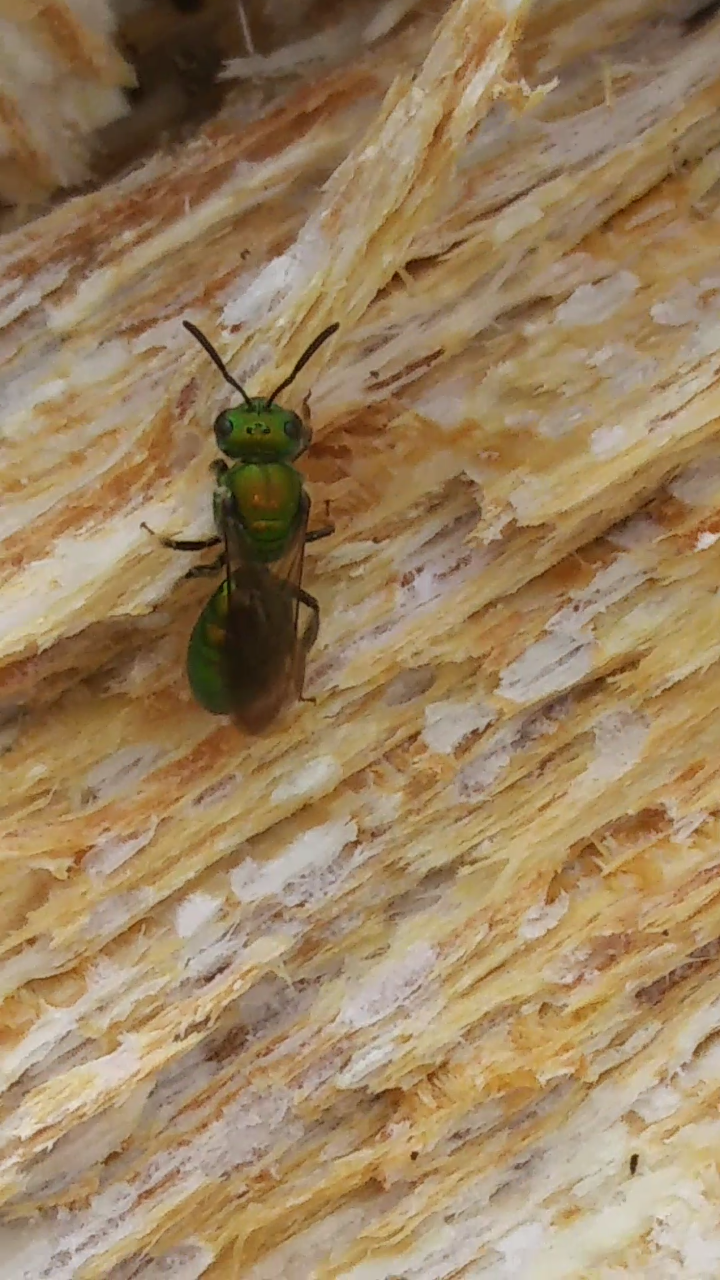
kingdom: Animalia
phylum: Arthropoda
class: Insecta
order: Hymenoptera
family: Halictidae
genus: Augochlora
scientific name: Augochlora pura
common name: Pure green sweat bee
